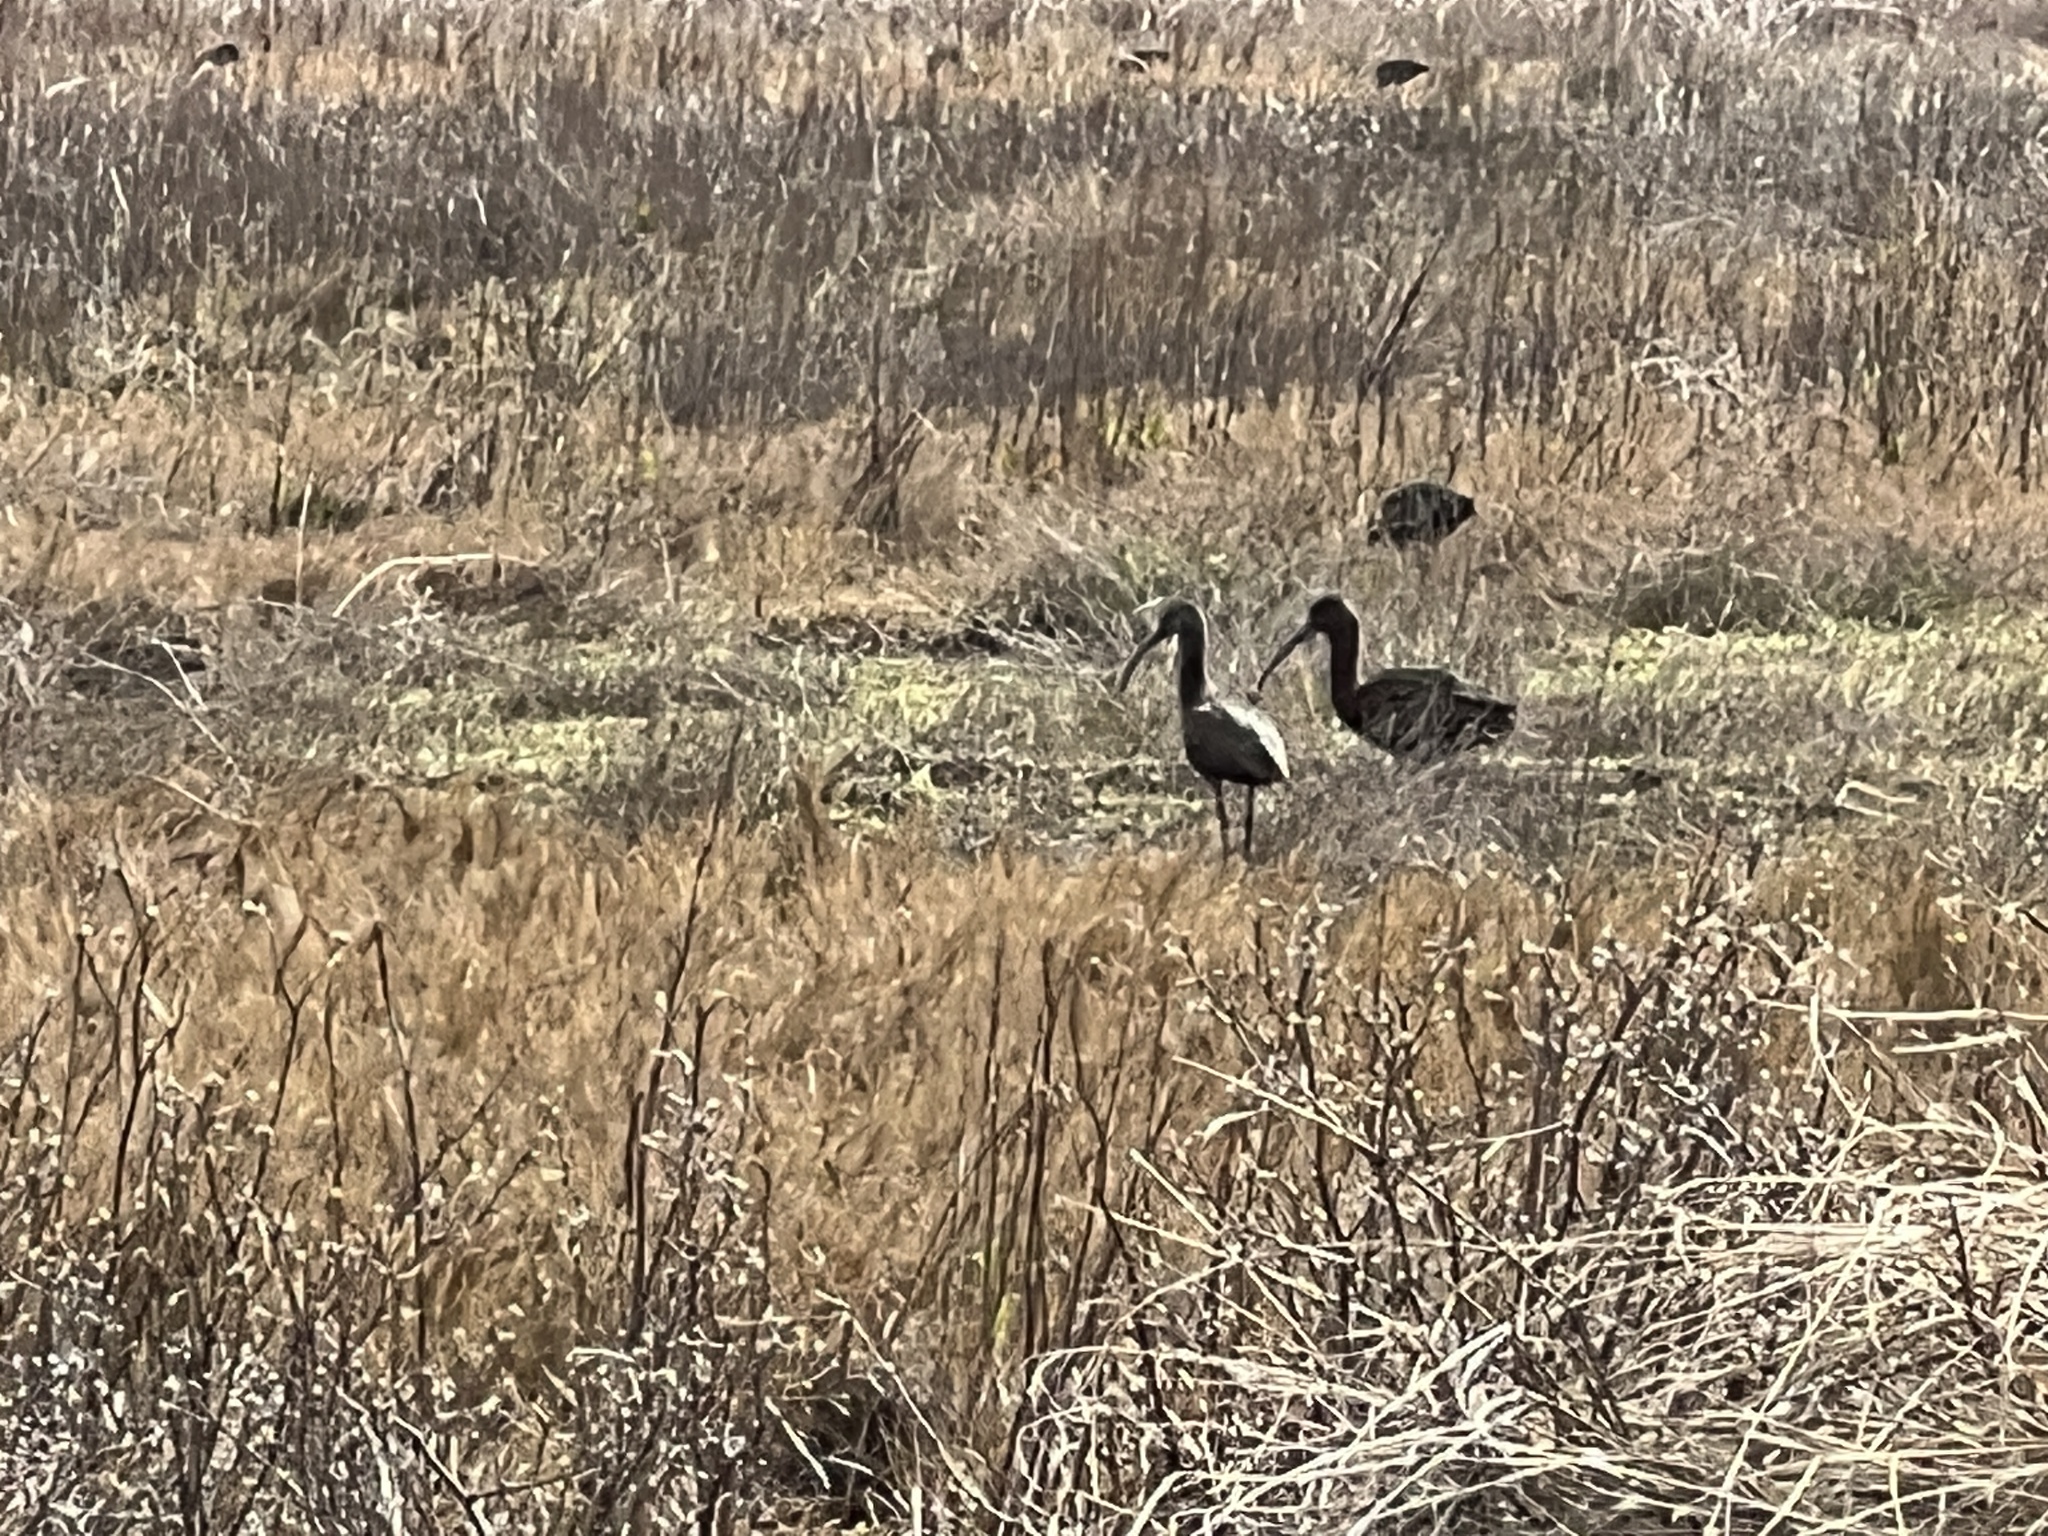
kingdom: Animalia
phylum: Chordata
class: Aves
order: Pelecaniformes
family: Threskiornithidae
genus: Plegadis
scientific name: Plegadis chihi
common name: White-faced ibis
